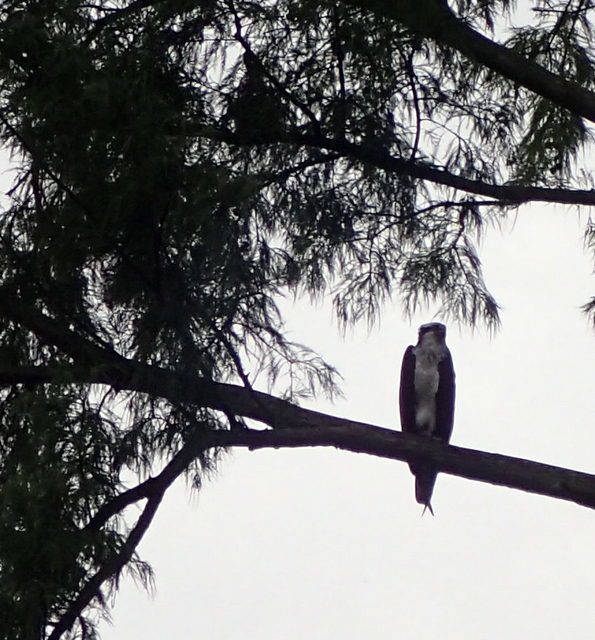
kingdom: Animalia
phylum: Chordata
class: Aves
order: Accipitriformes
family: Pandionidae
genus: Pandion
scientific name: Pandion haliaetus
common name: Osprey
